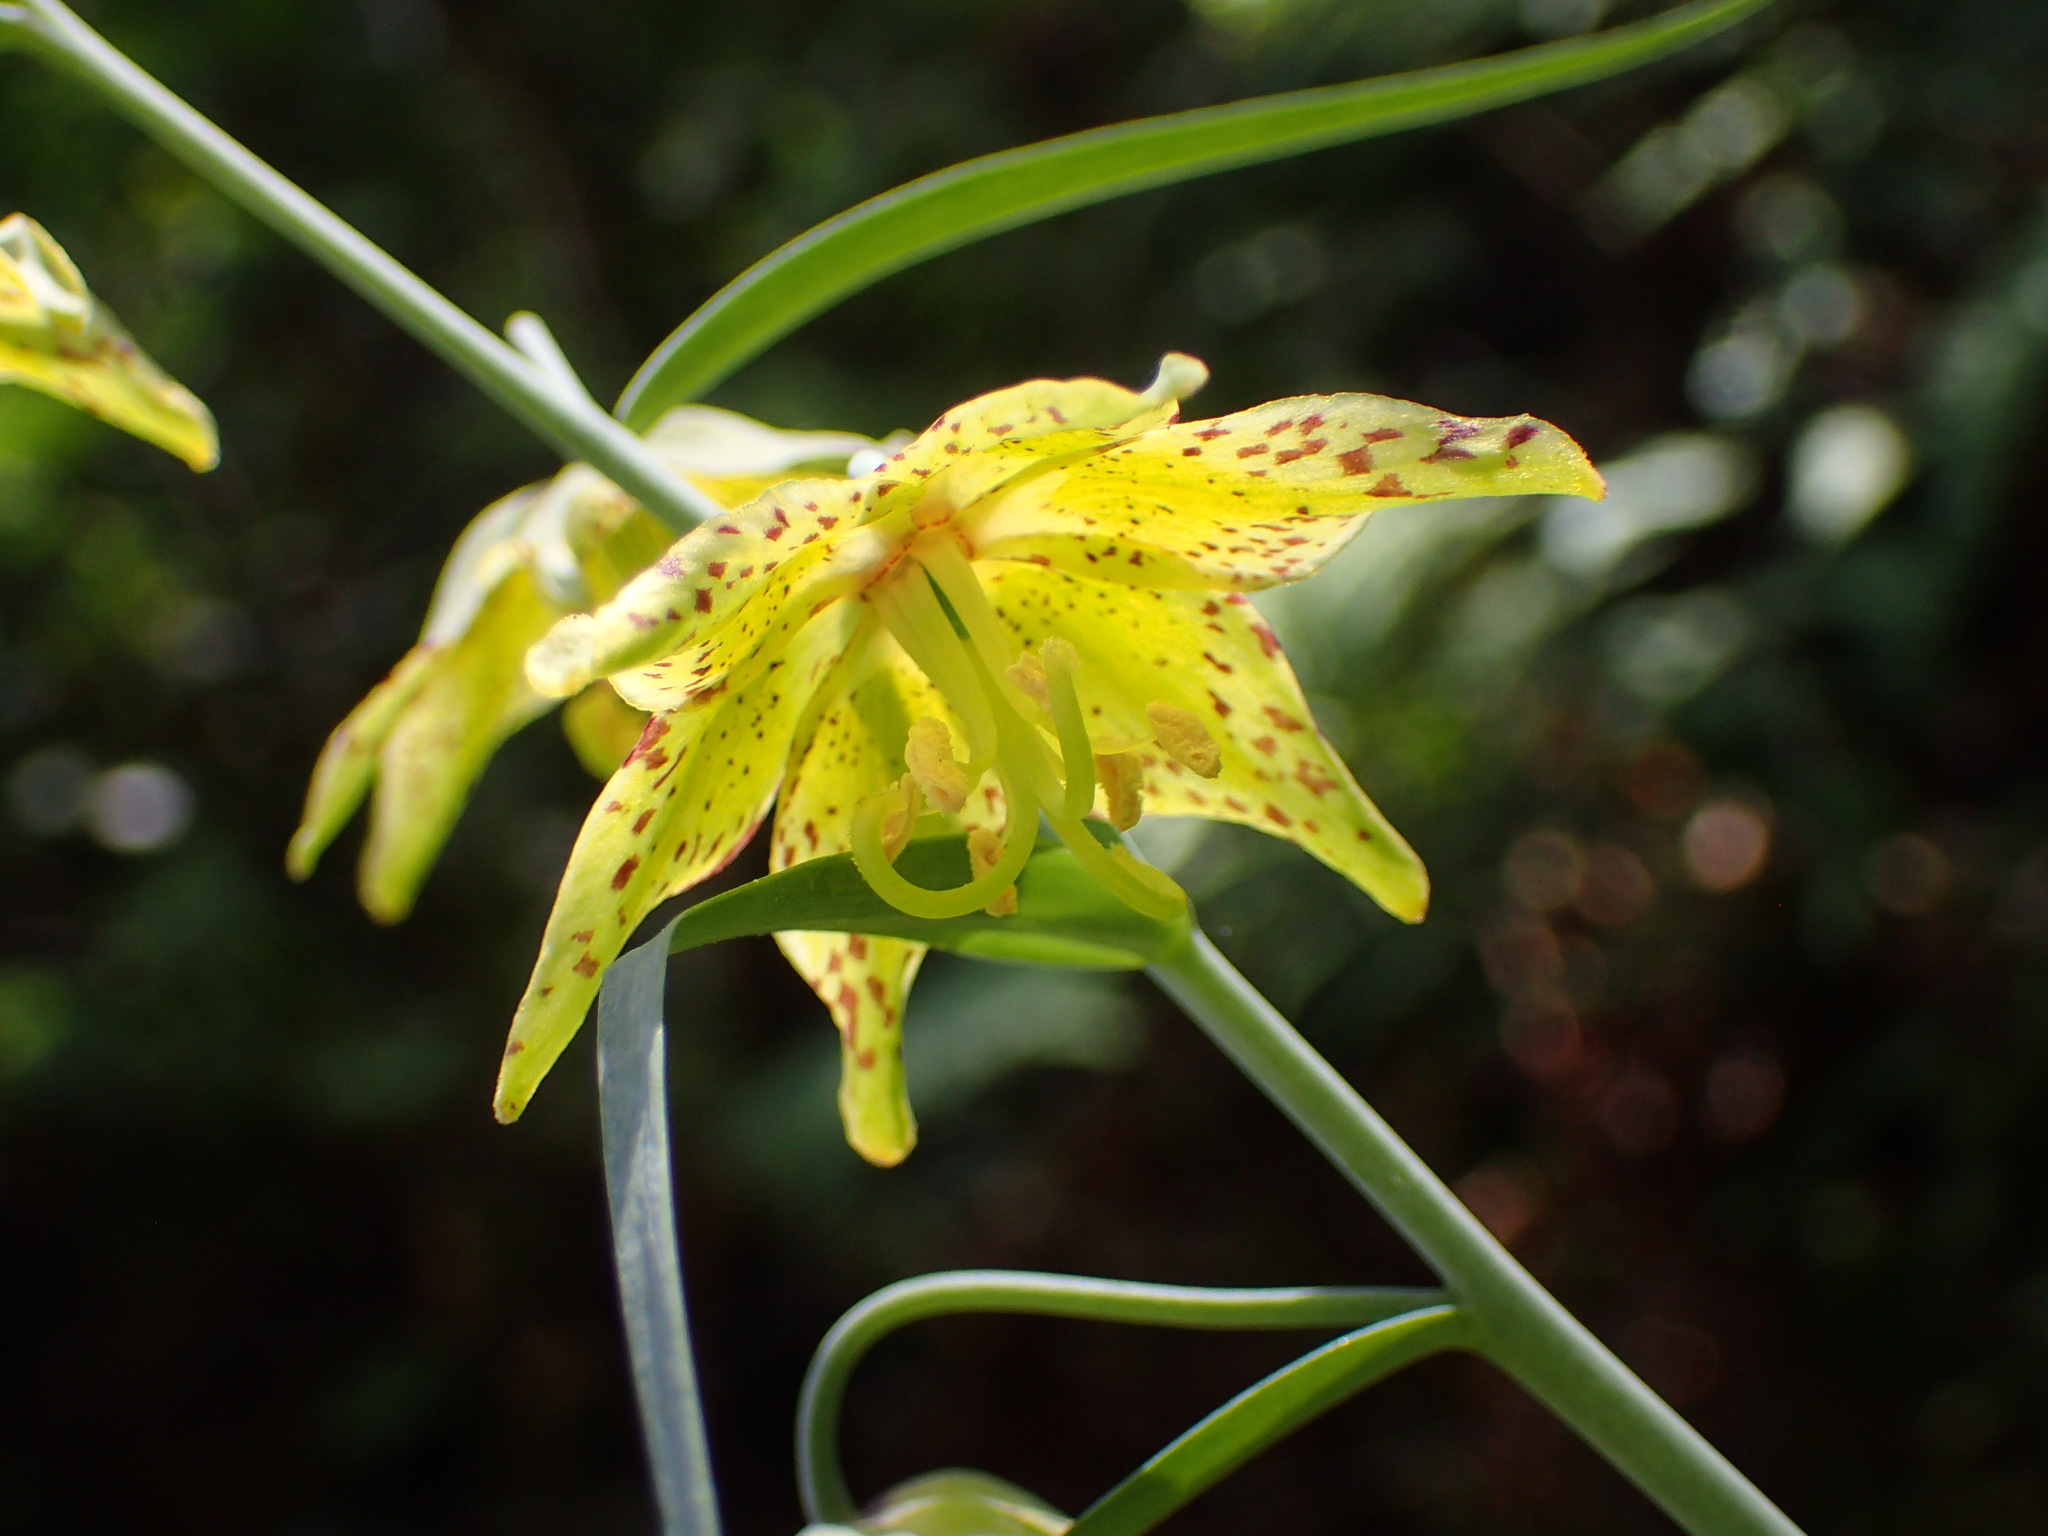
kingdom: Plantae
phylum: Tracheophyta
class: Liliopsida
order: Liliales
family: Liliaceae
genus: Fritillaria
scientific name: Fritillaria ojaiensis
